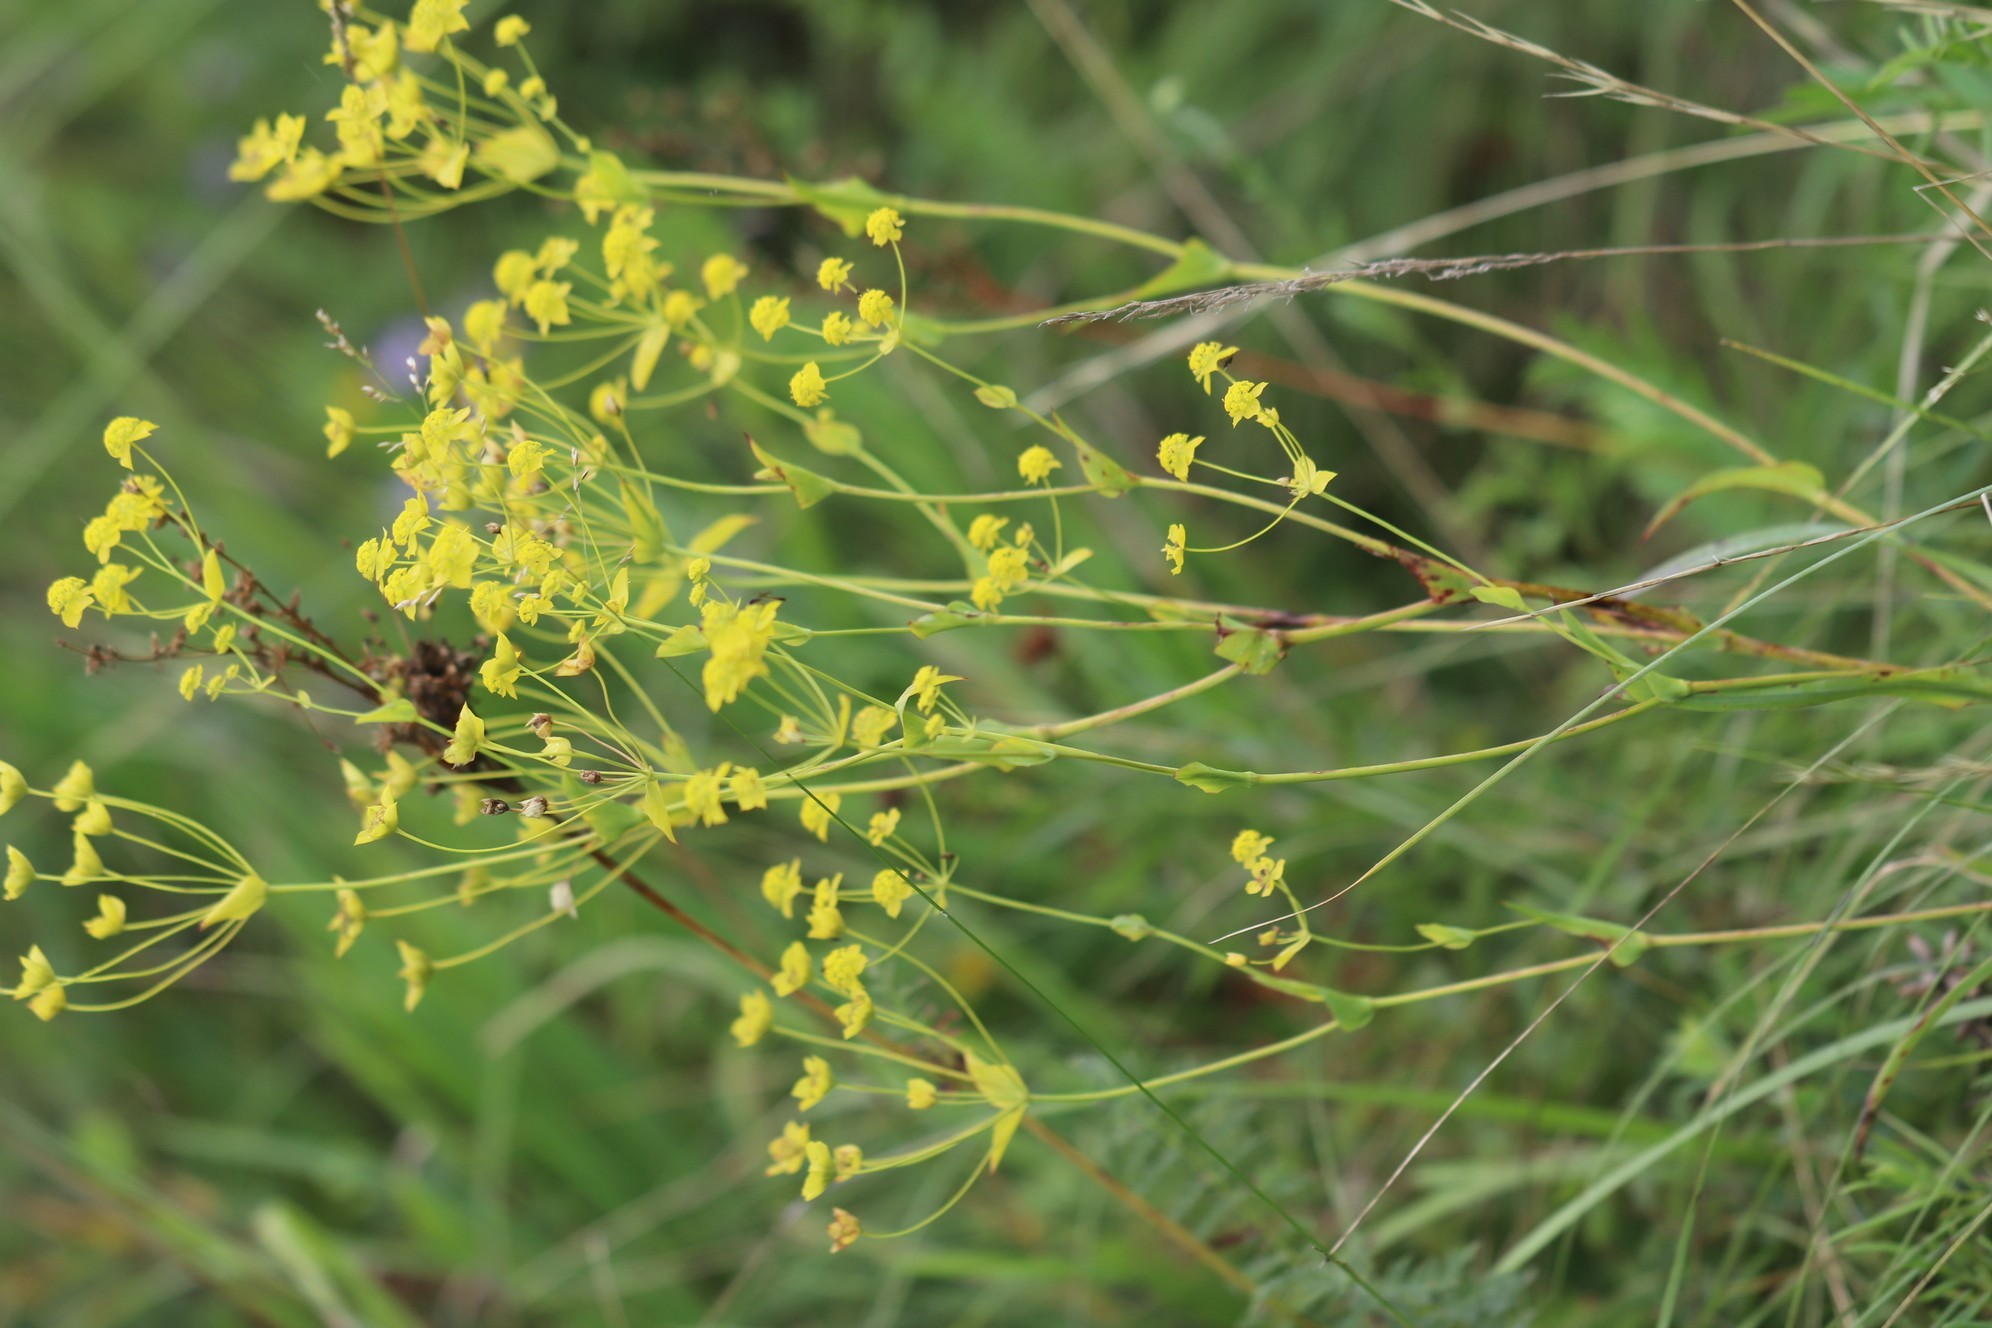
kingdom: Plantae
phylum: Tracheophyta
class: Magnoliopsida
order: Apiales
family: Apiaceae
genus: Bupleurum
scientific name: Bupleurum multinerve
